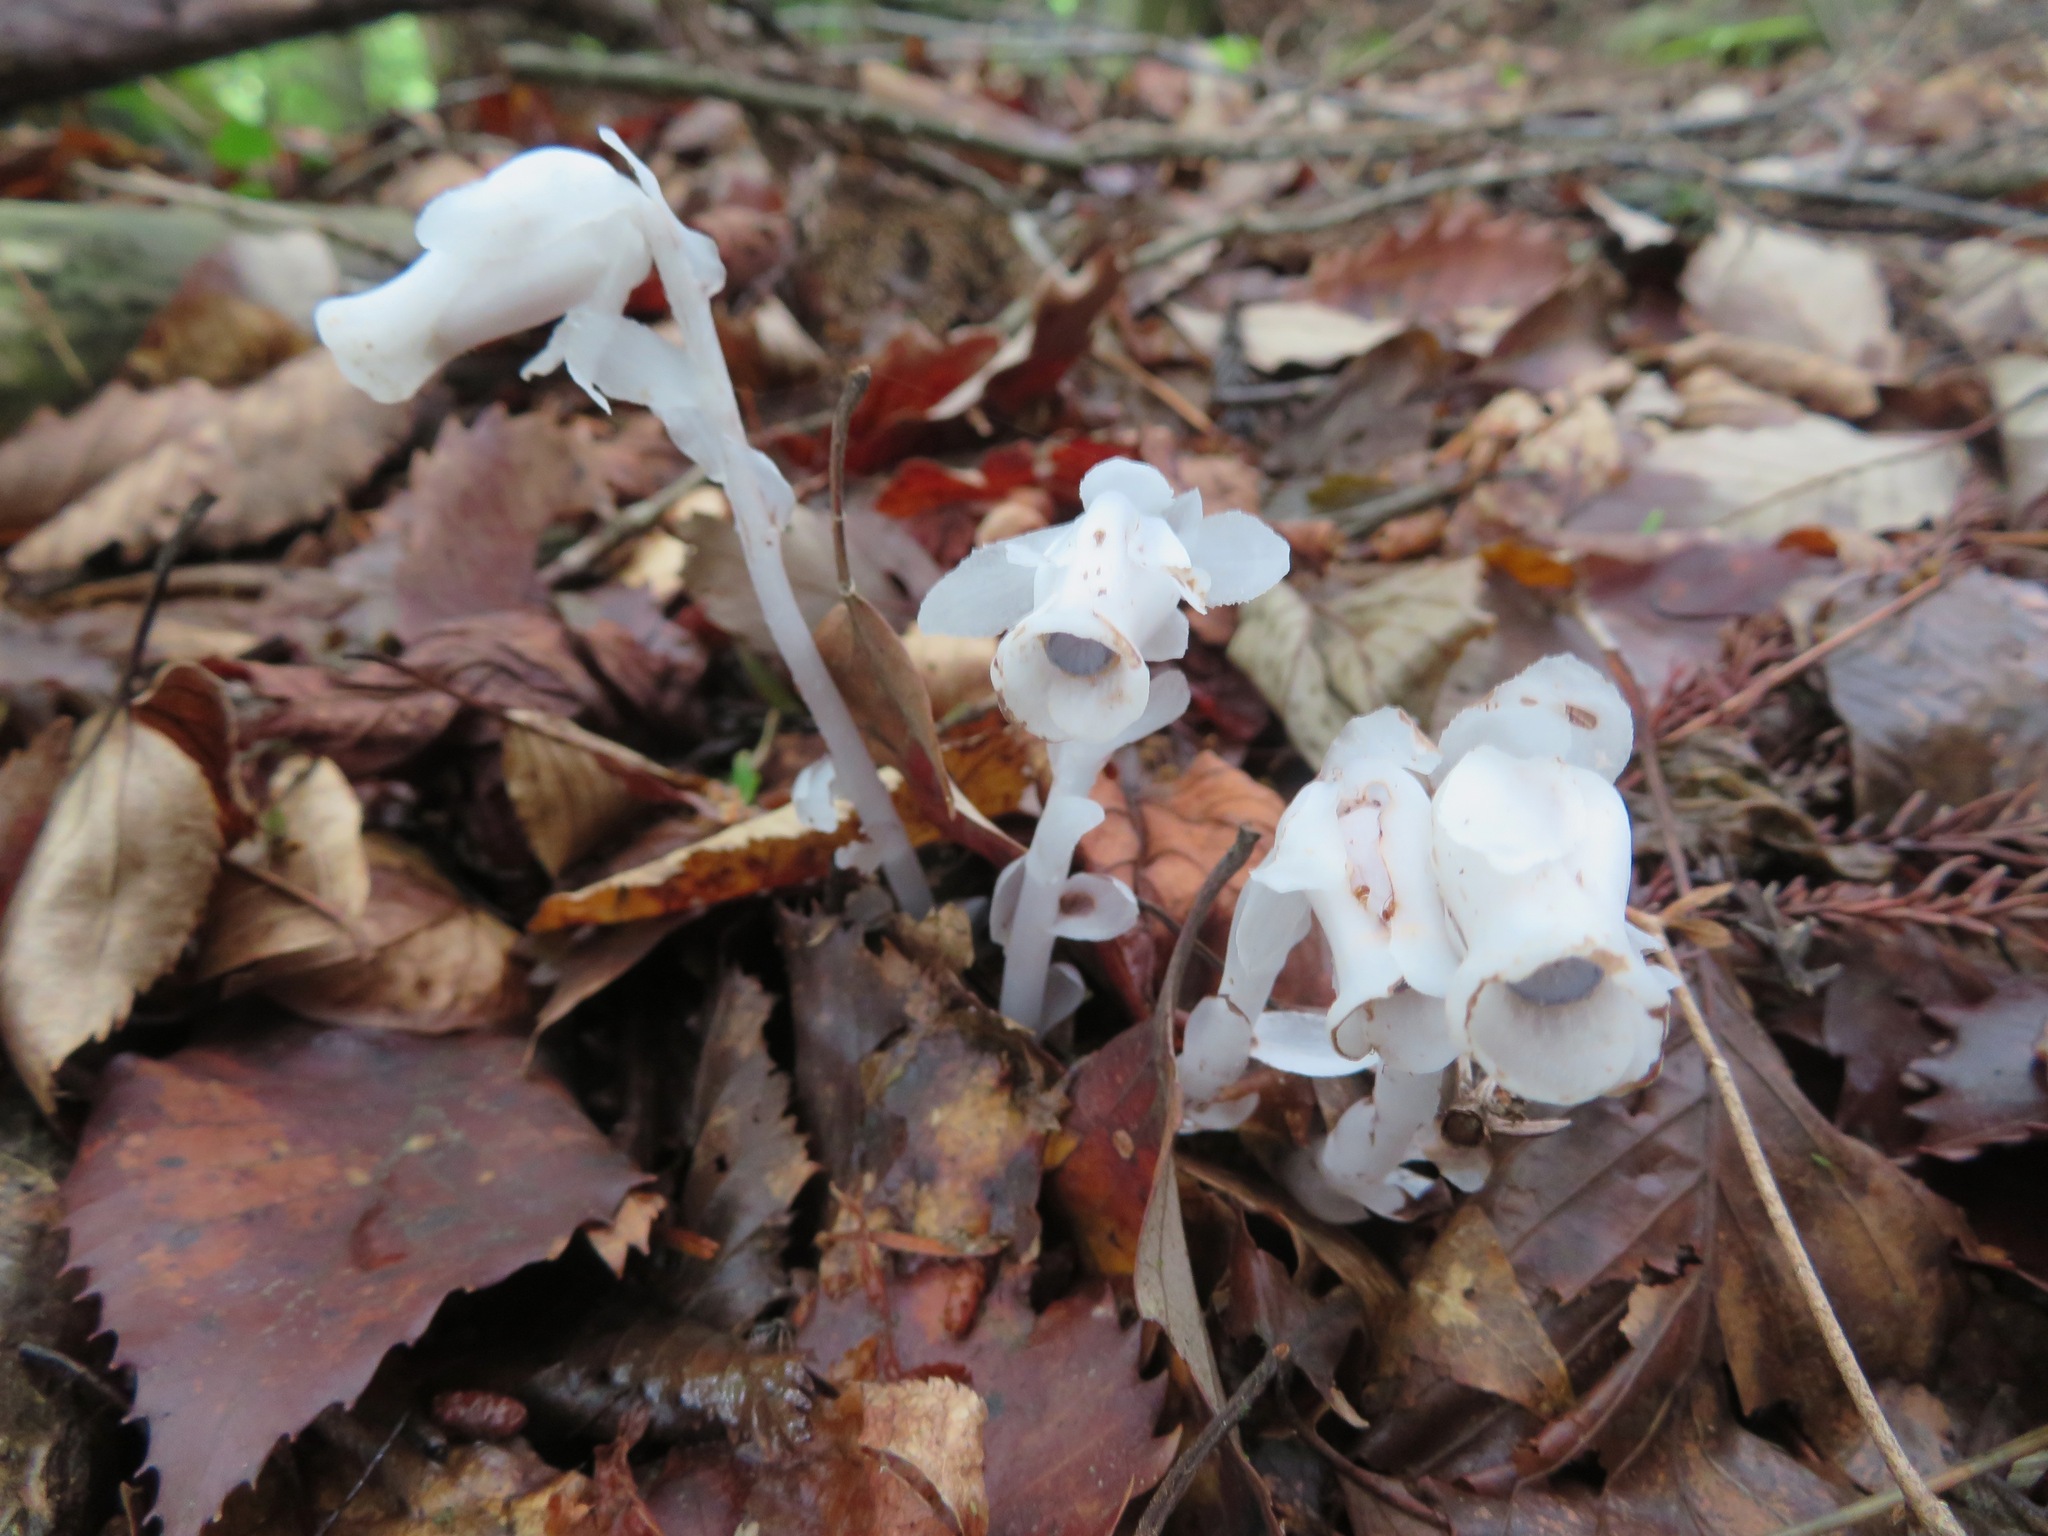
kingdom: Plantae
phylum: Tracheophyta
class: Magnoliopsida
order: Ericales
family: Ericaceae
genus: Monotropastrum
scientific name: Monotropastrum humile
